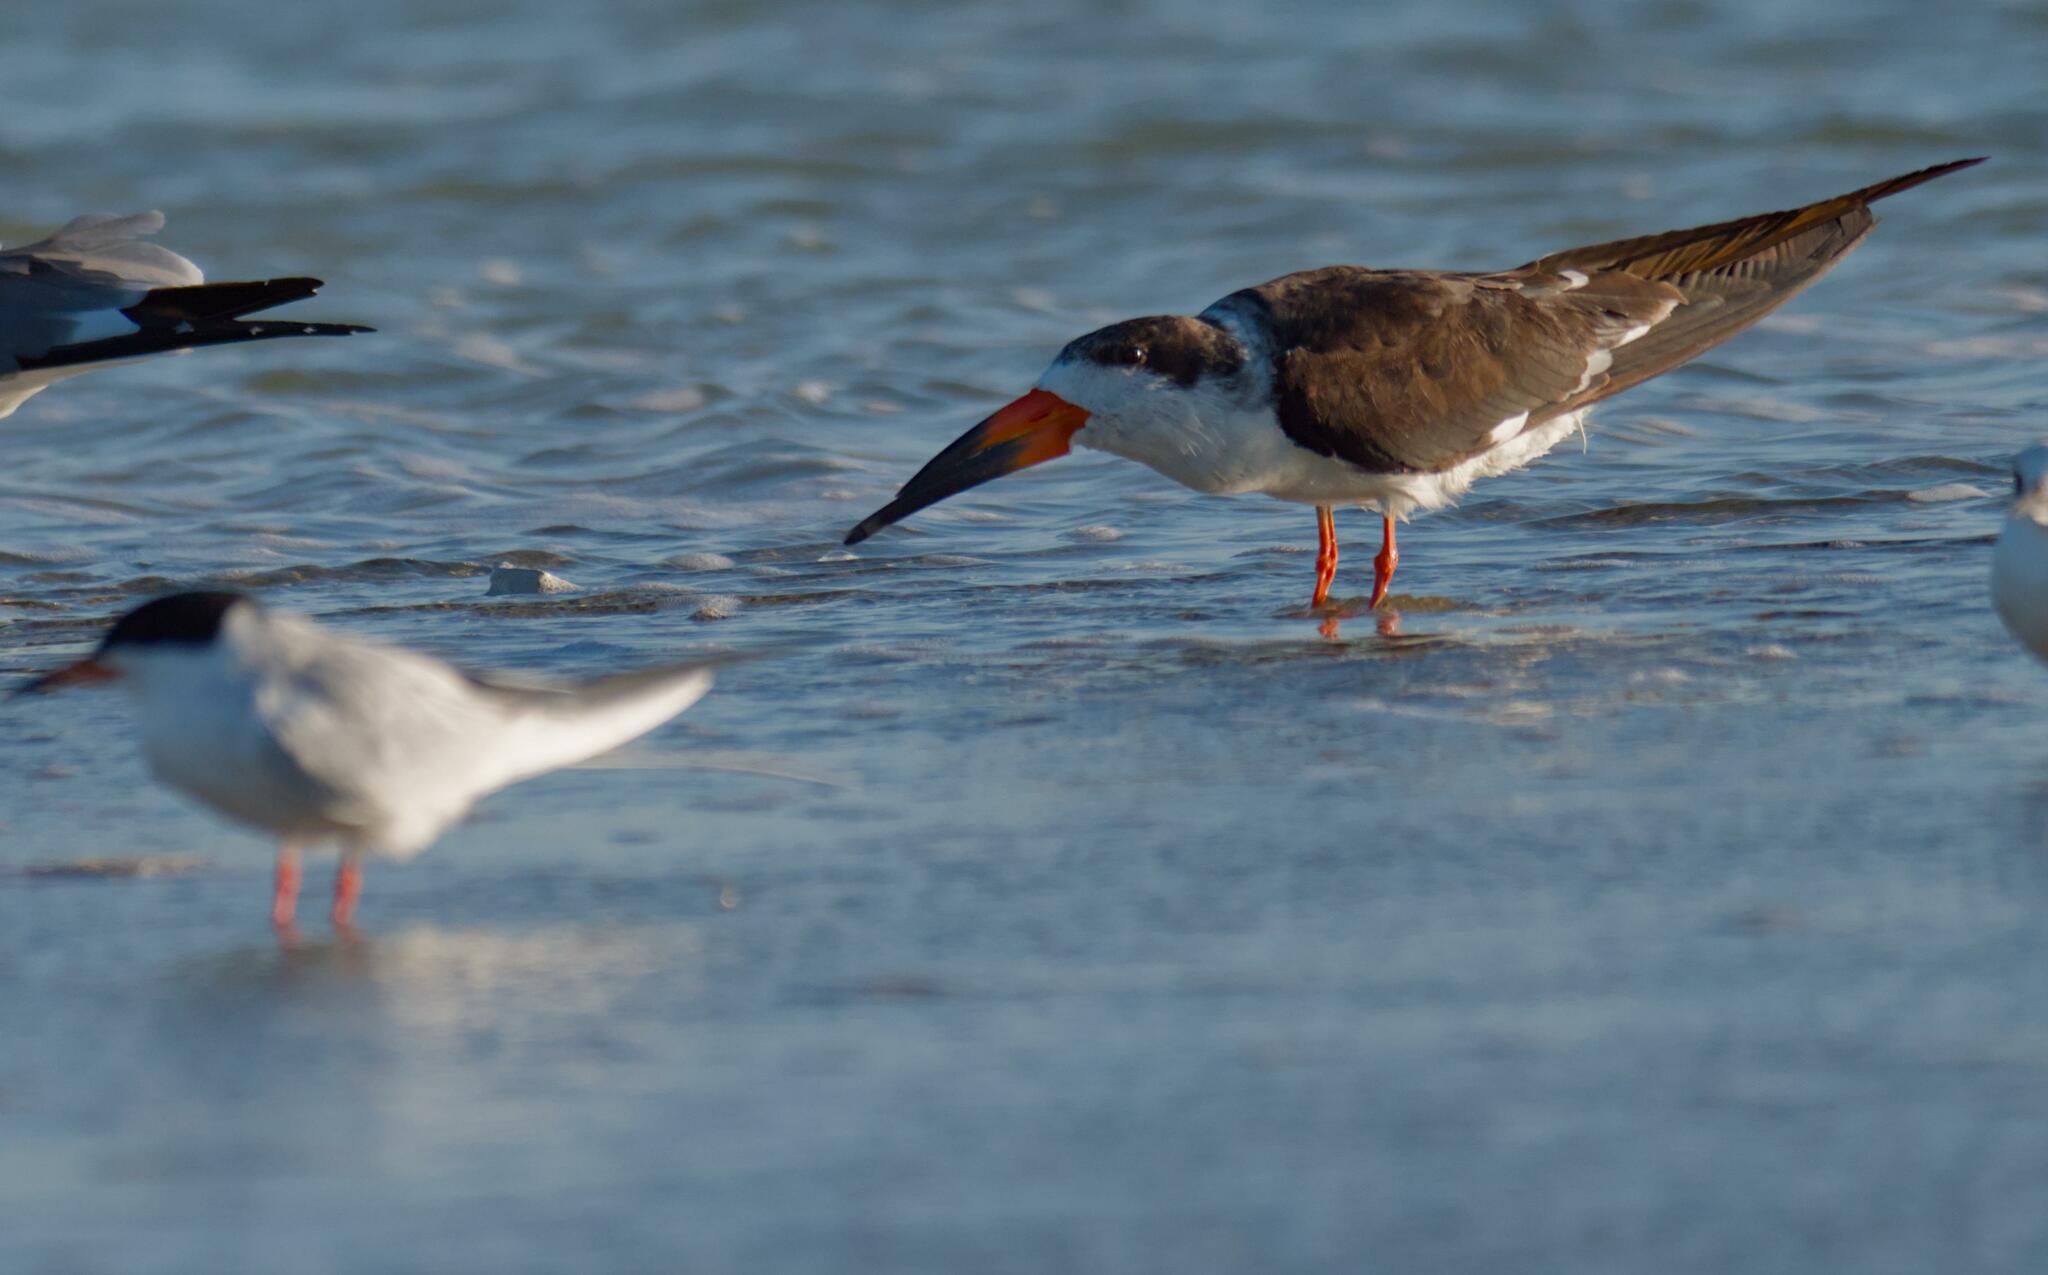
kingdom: Animalia
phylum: Chordata
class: Aves
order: Charadriiformes
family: Laridae
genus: Rynchops
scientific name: Rynchops niger
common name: Black skimmer
